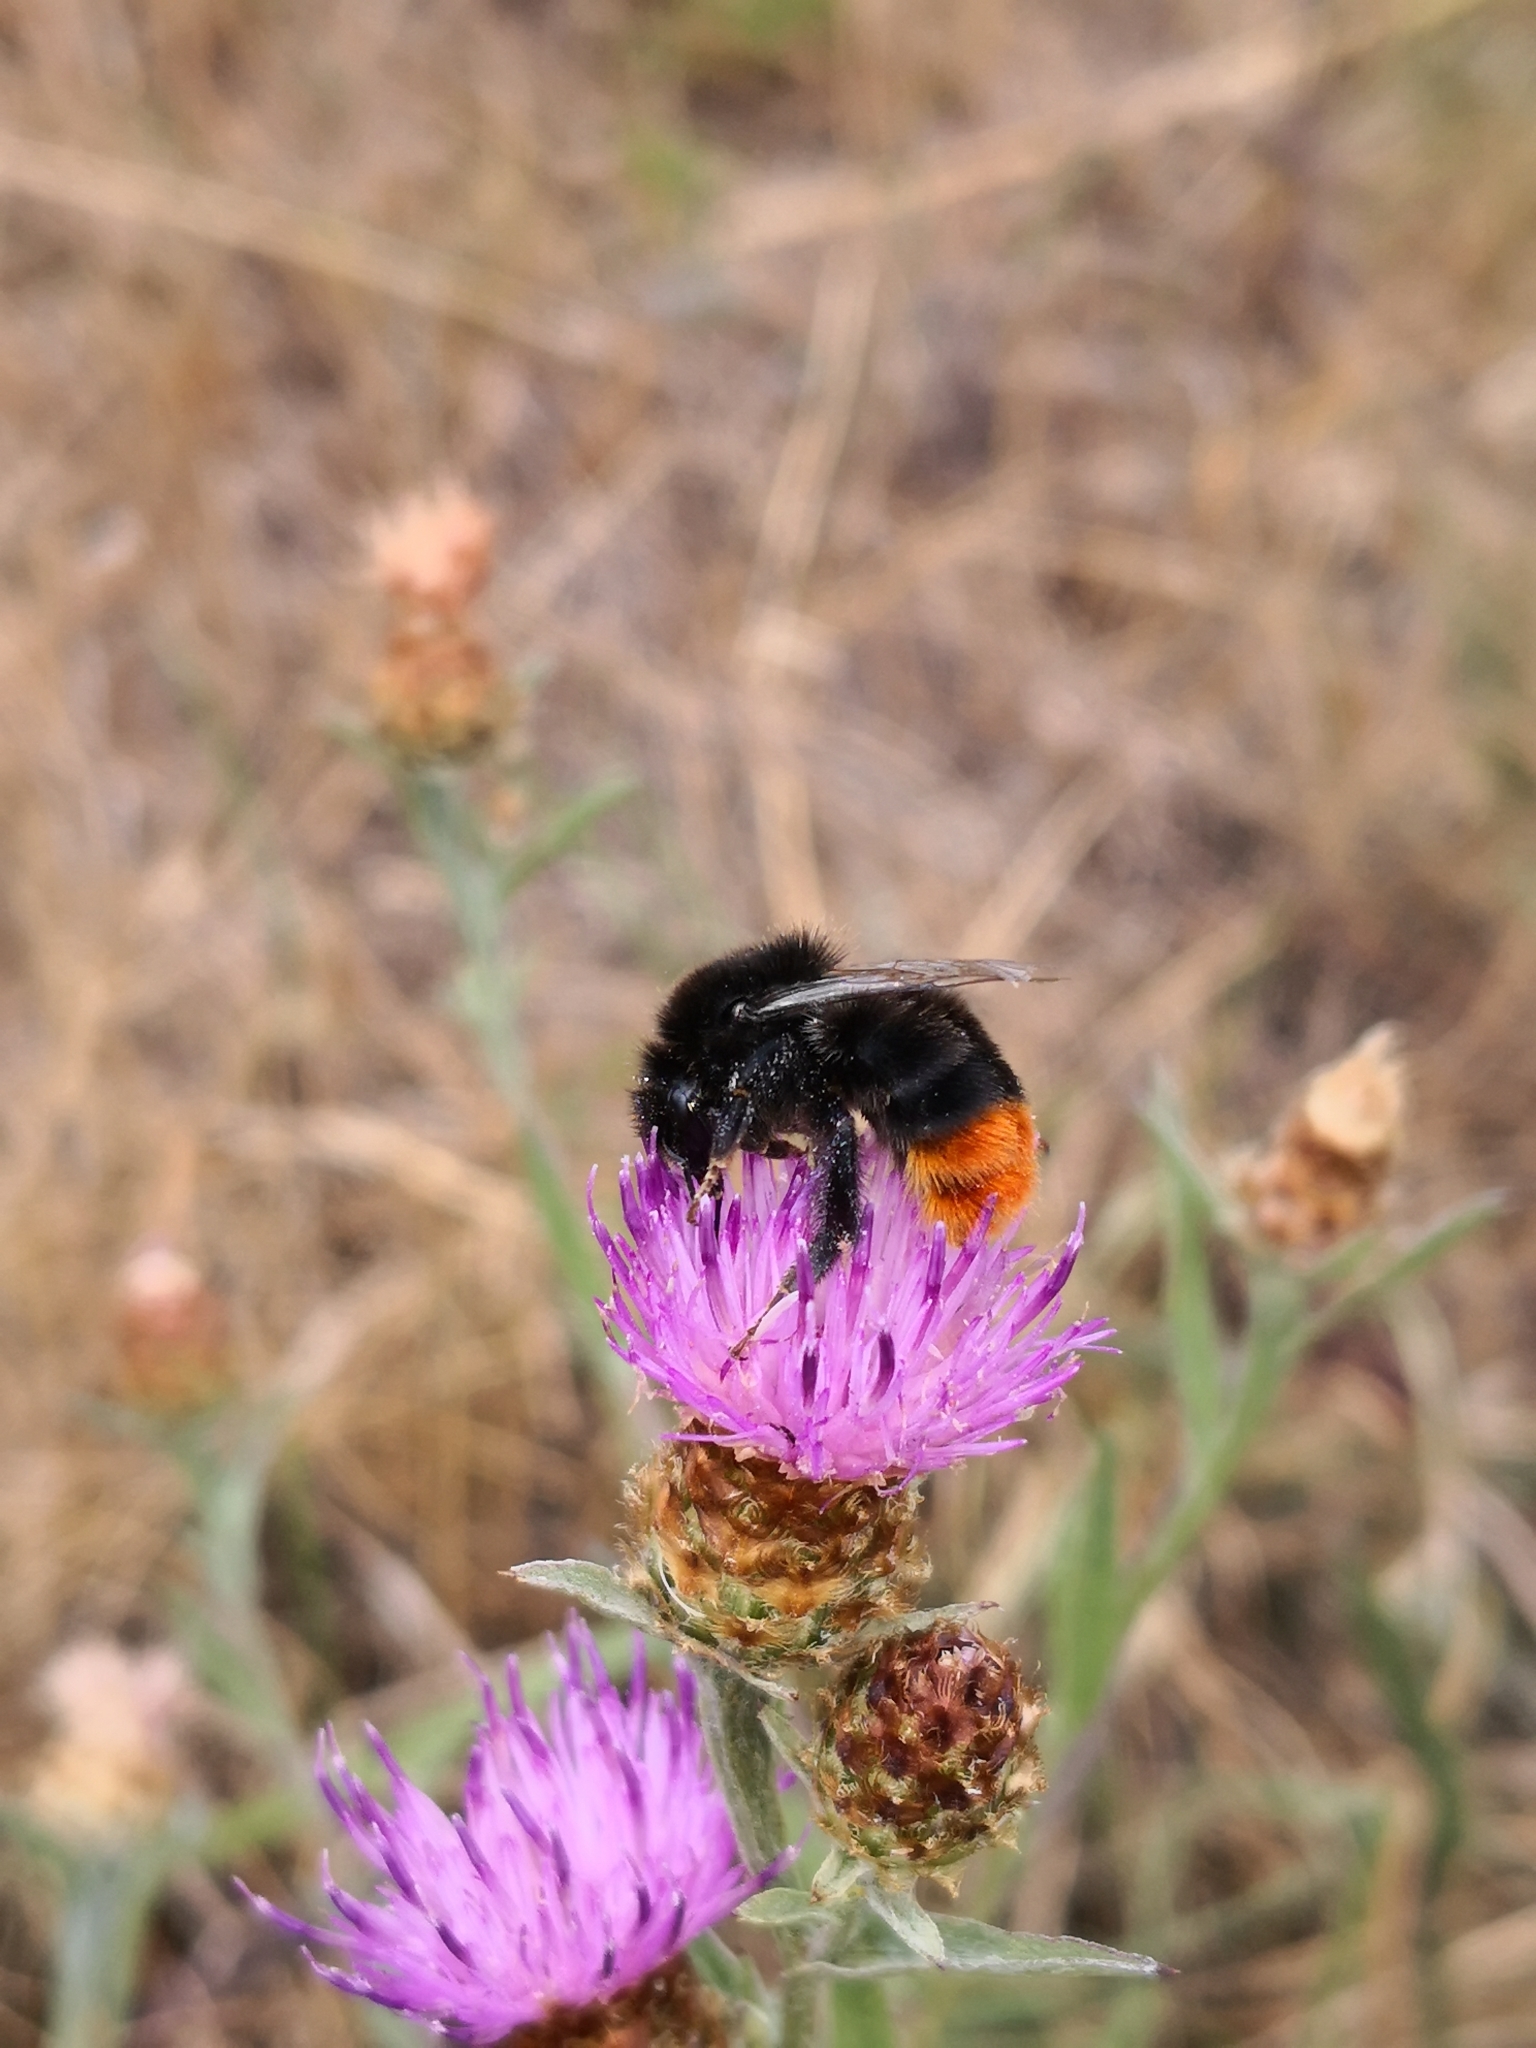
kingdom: Animalia
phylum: Arthropoda
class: Insecta
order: Hymenoptera
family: Apidae
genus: Bombus
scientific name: Bombus lapidarius
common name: Large red-tailed humble-bee
